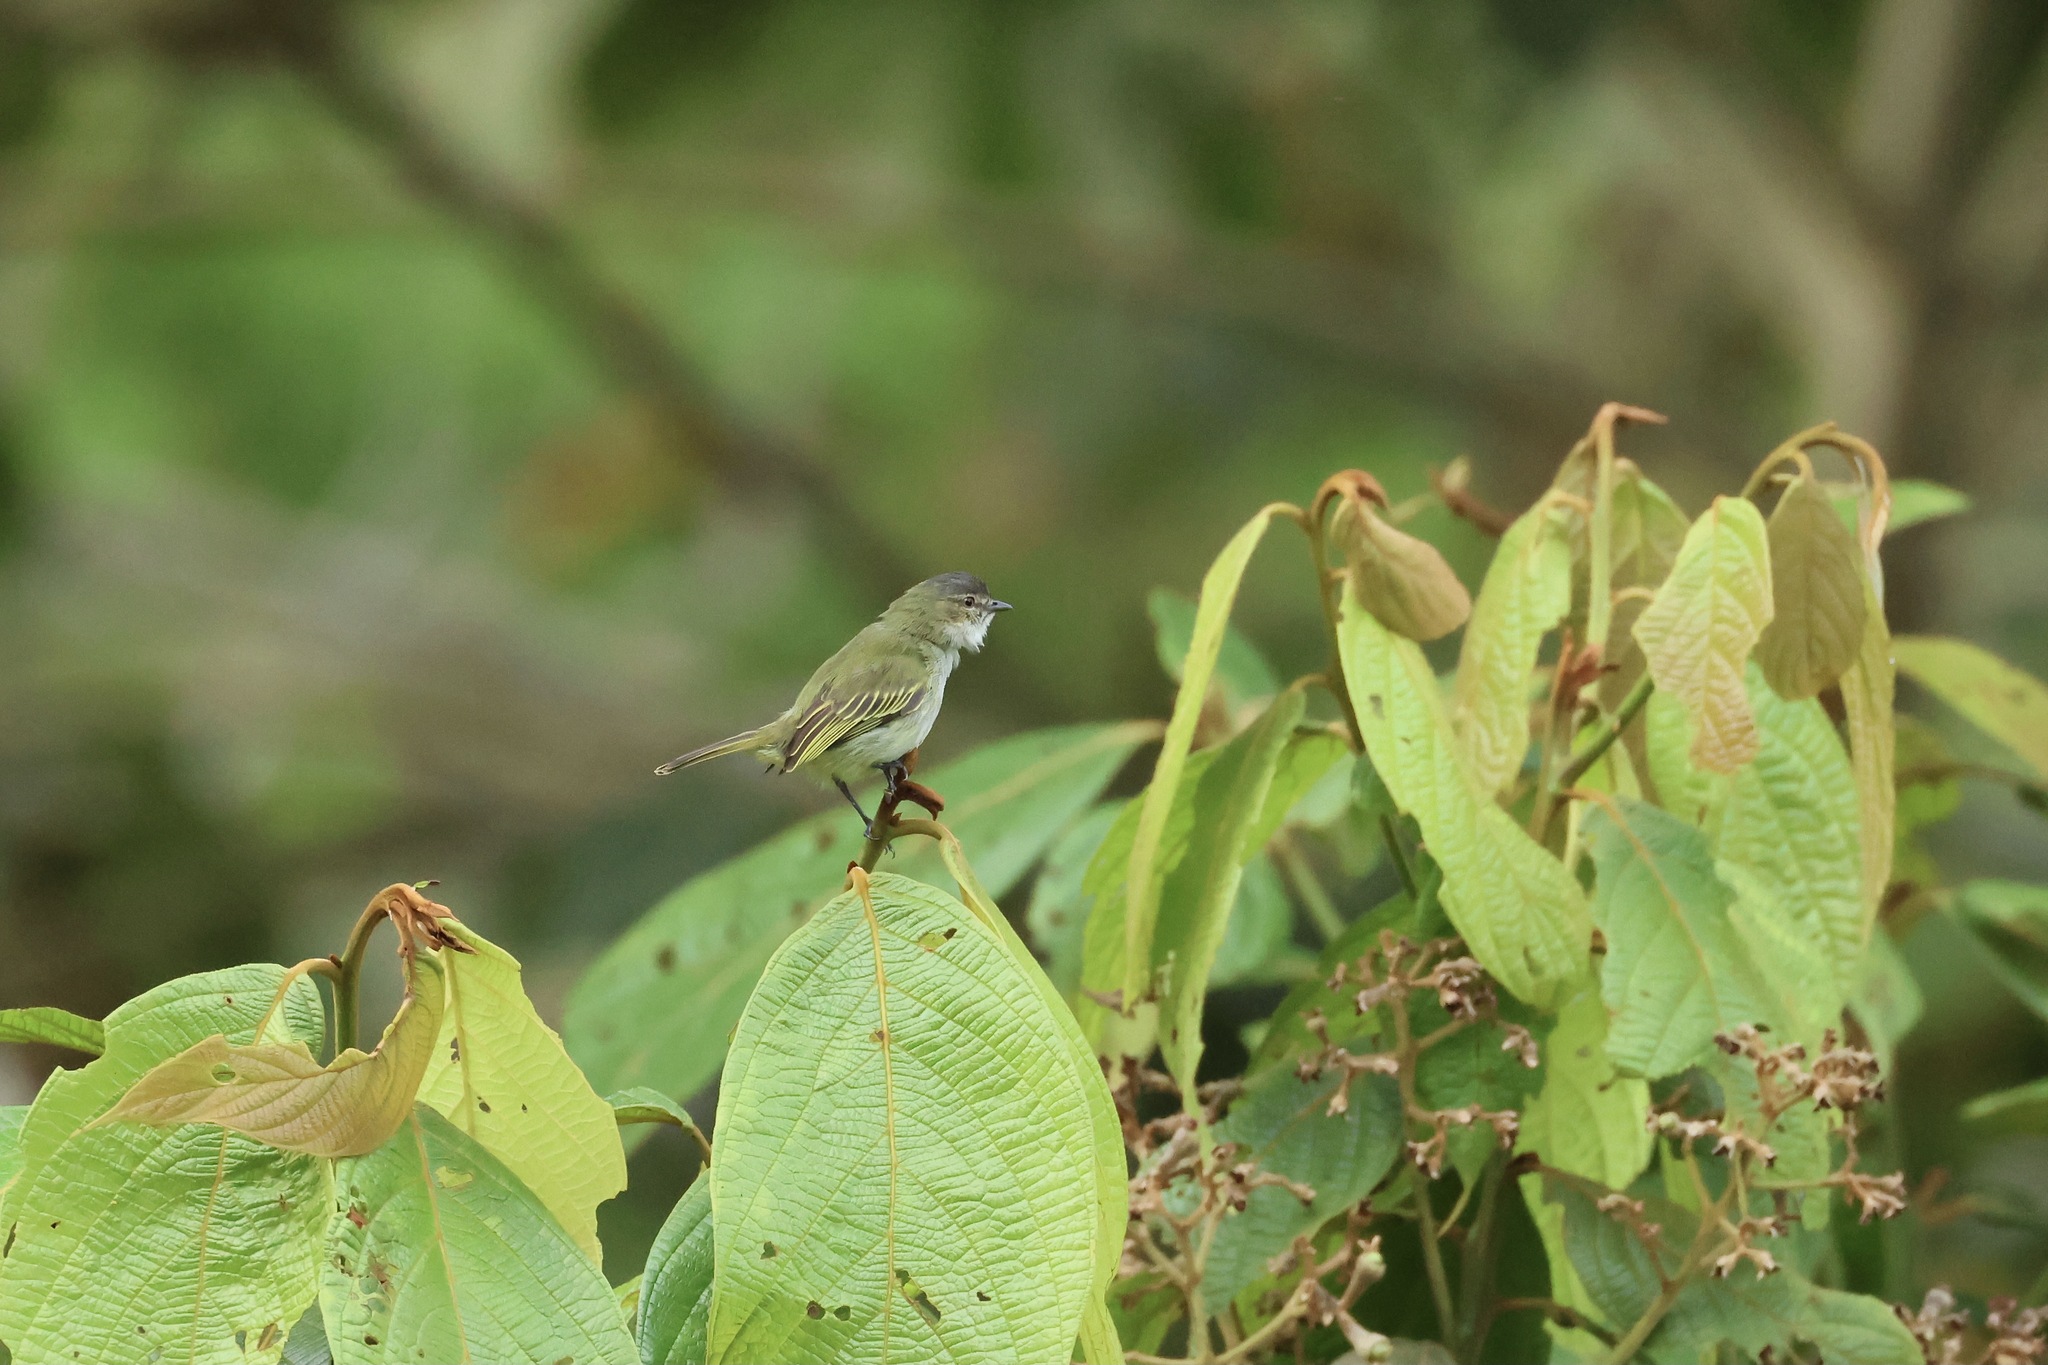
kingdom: Animalia
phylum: Chordata
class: Aves
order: Passeriformes
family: Tyrannidae
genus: Zimmerius
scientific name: Zimmerius vilissimus
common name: Paltry tyrannulet
